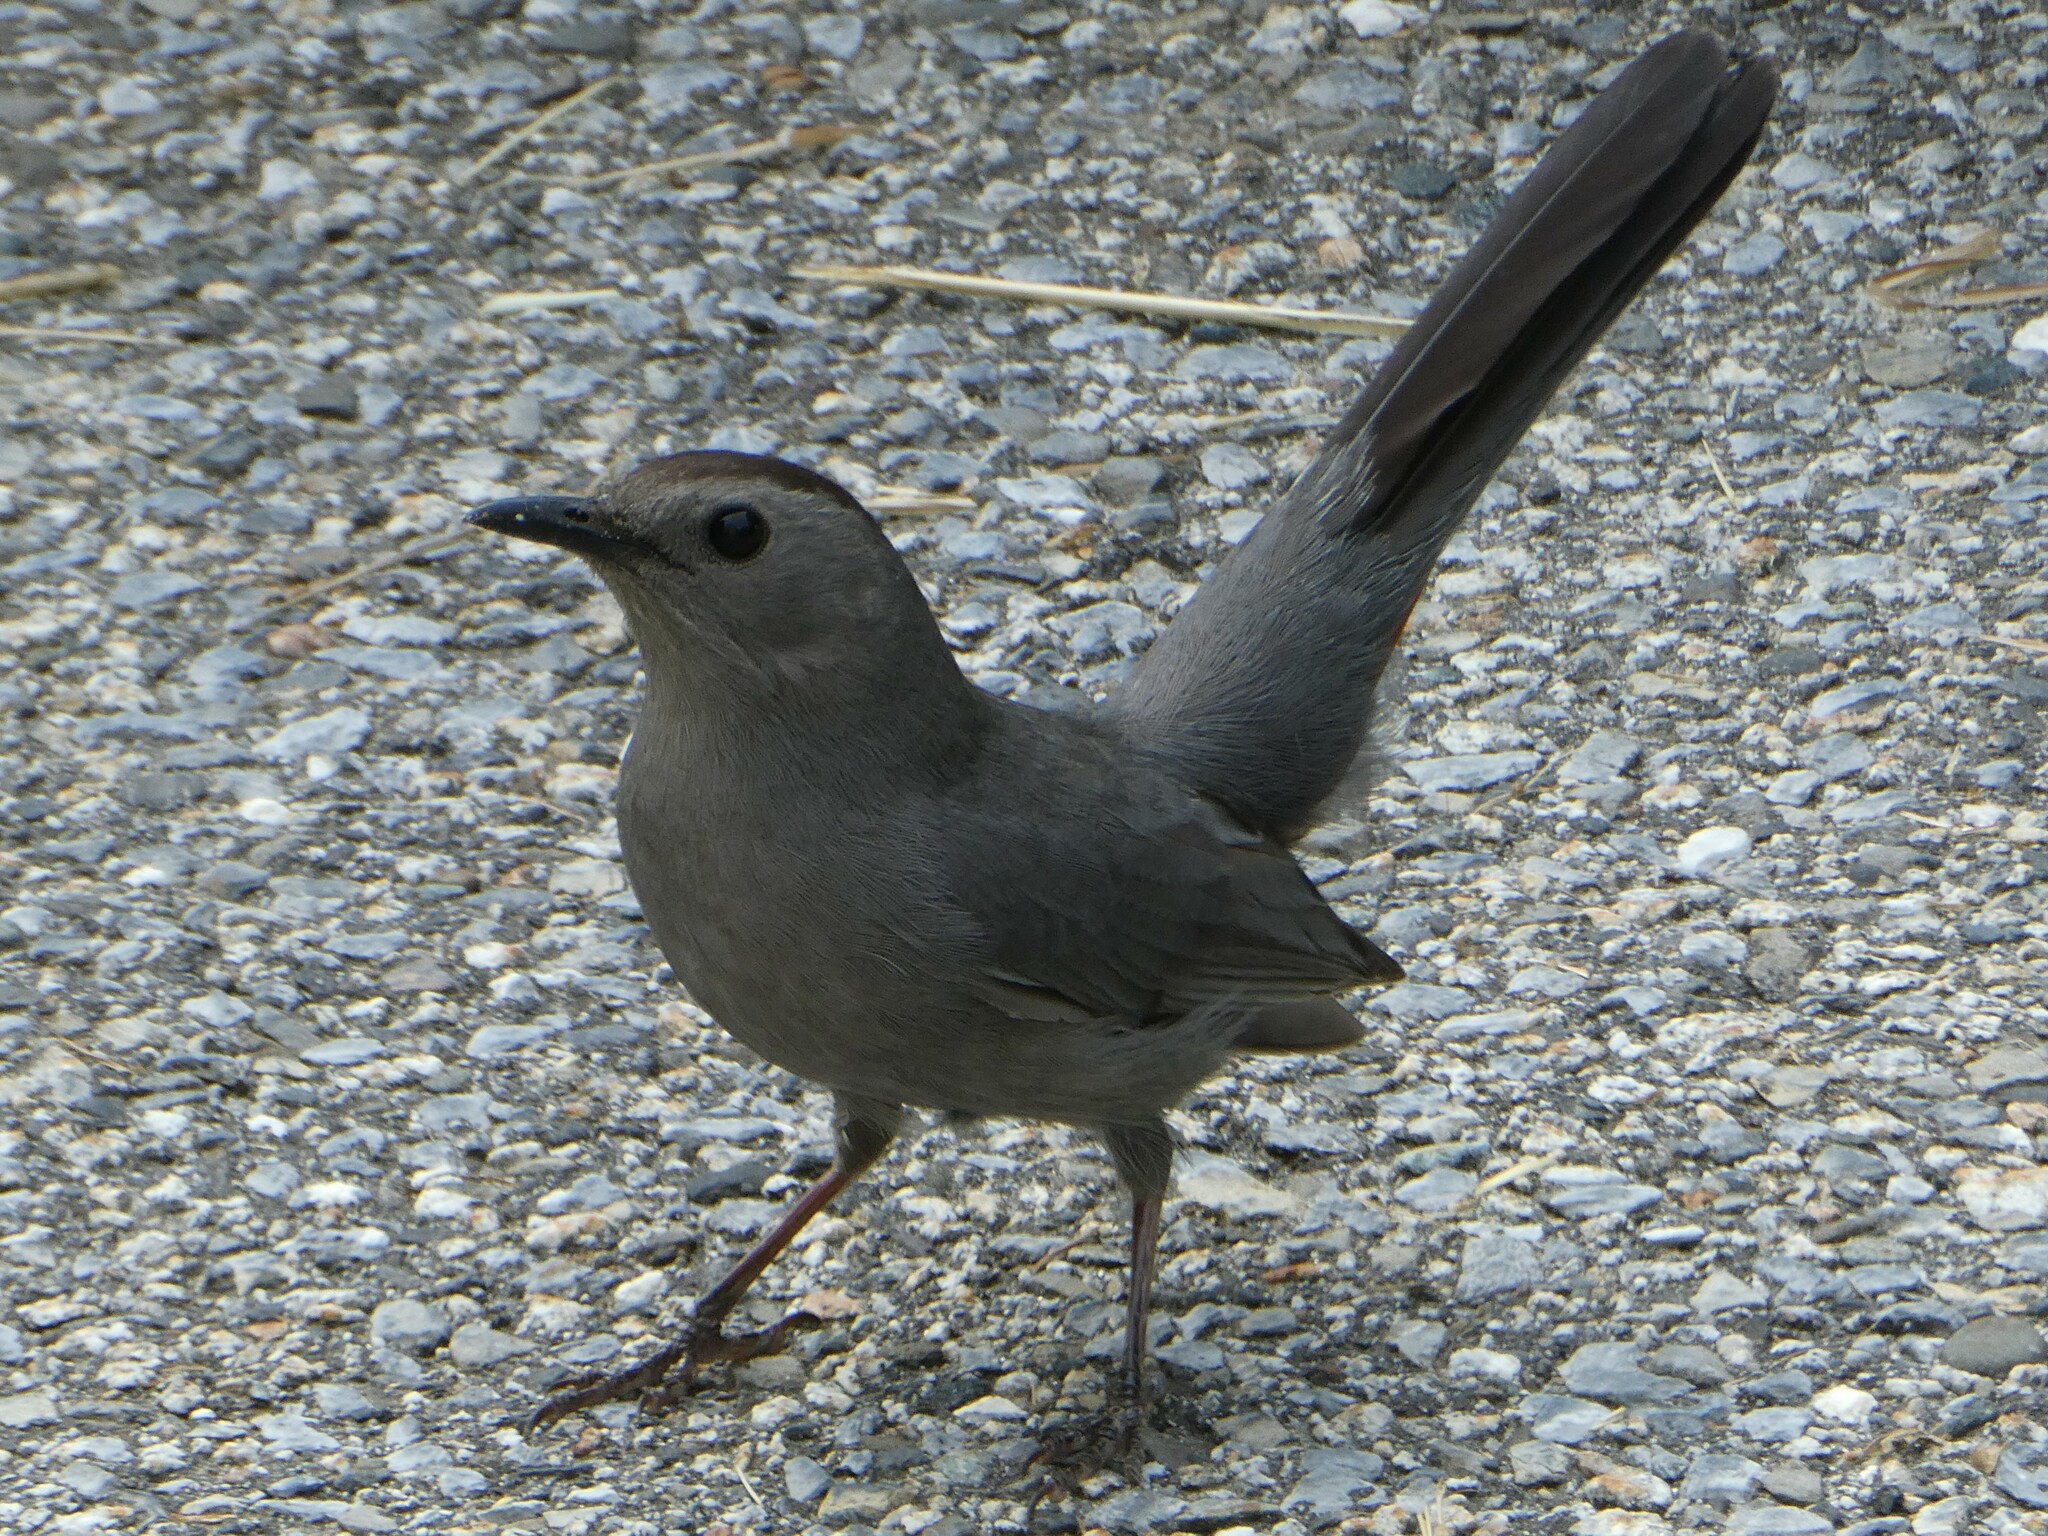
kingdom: Animalia
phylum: Chordata
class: Aves
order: Passeriformes
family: Mimidae
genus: Dumetella
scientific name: Dumetella carolinensis
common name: Gray catbird
